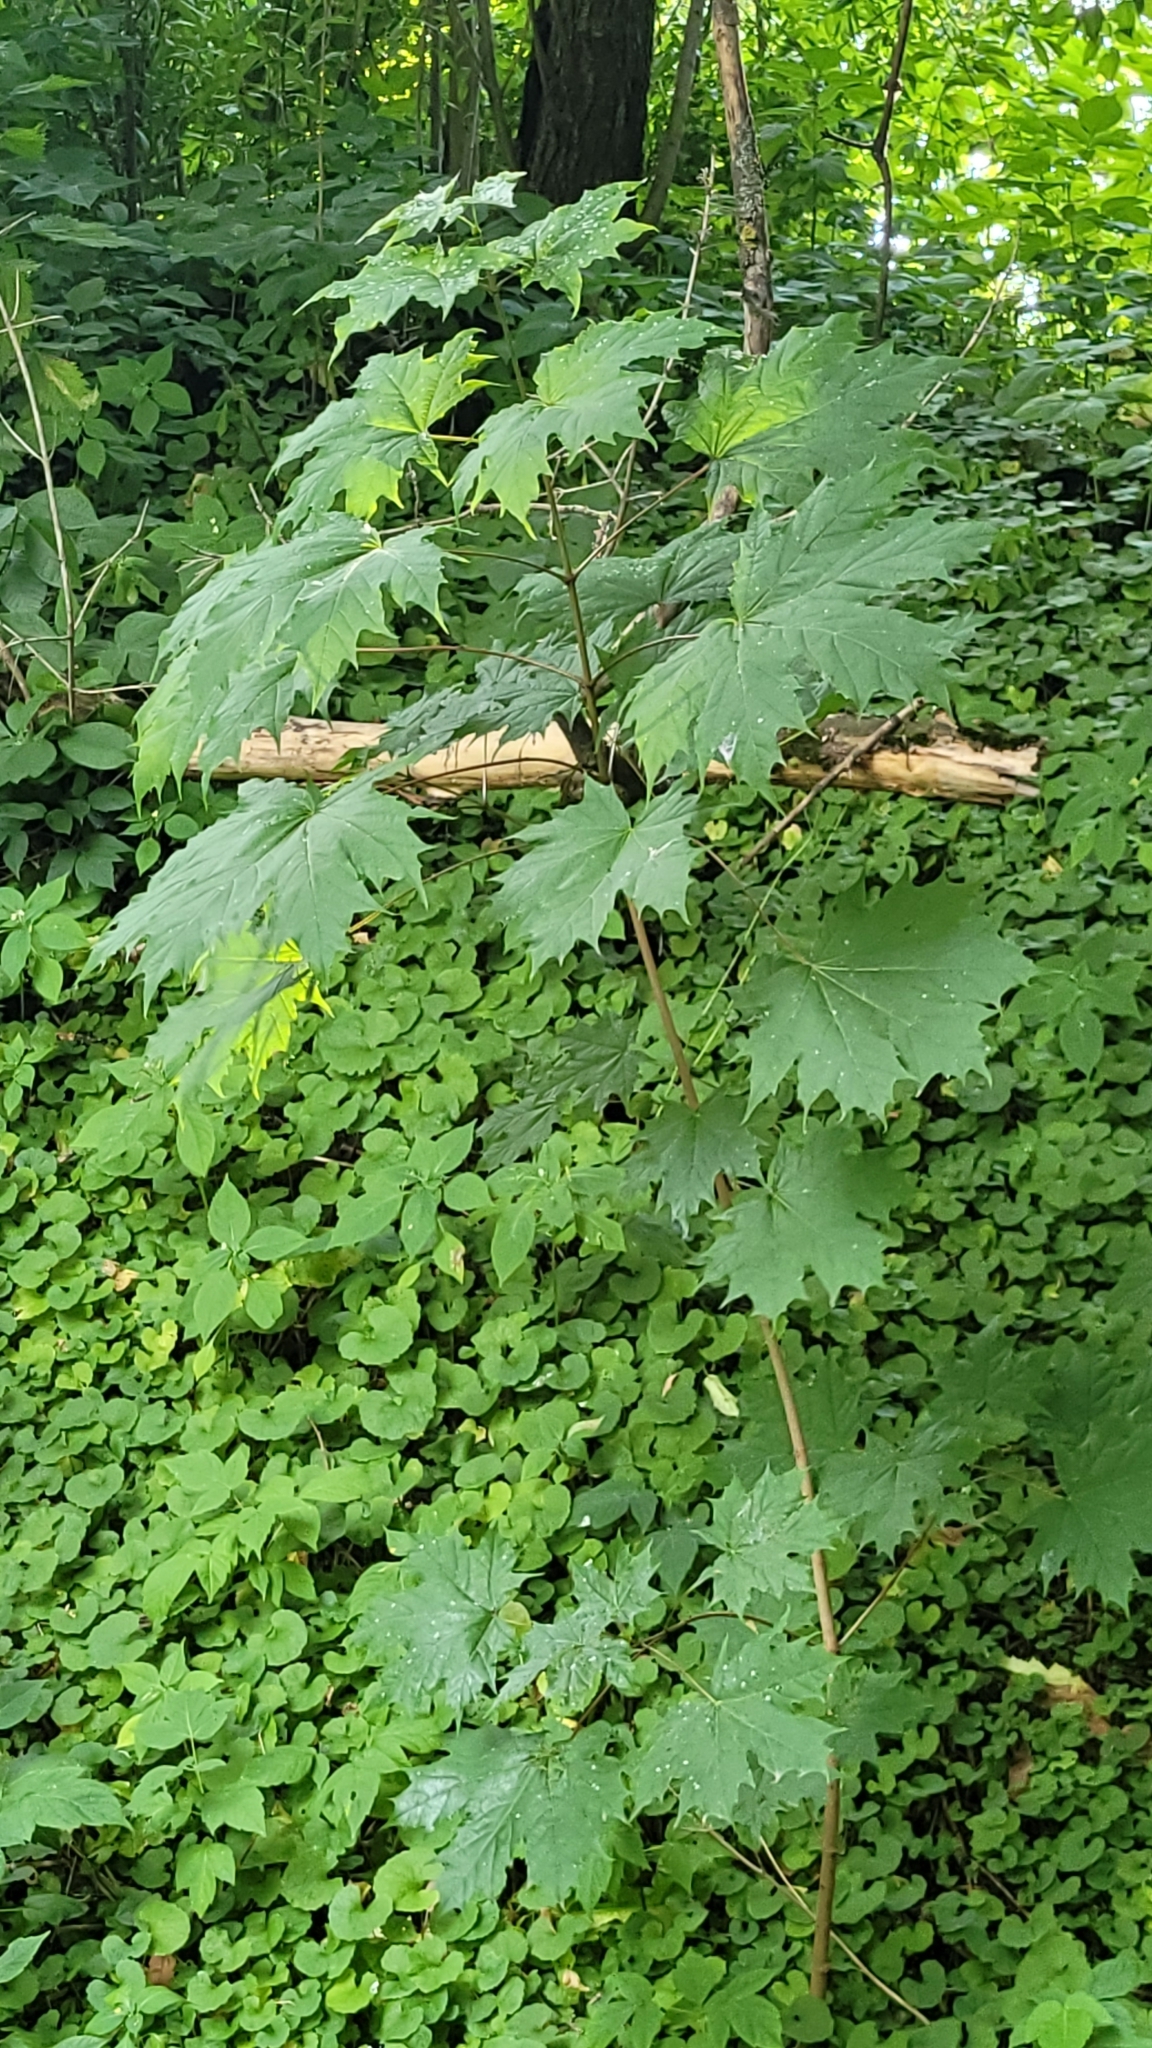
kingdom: Plantae
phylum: Tracheophyta
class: Magnoliopsida
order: Sapindales
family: Sapindaceae
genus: Acer
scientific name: Acer platanoides
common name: Norway maple
